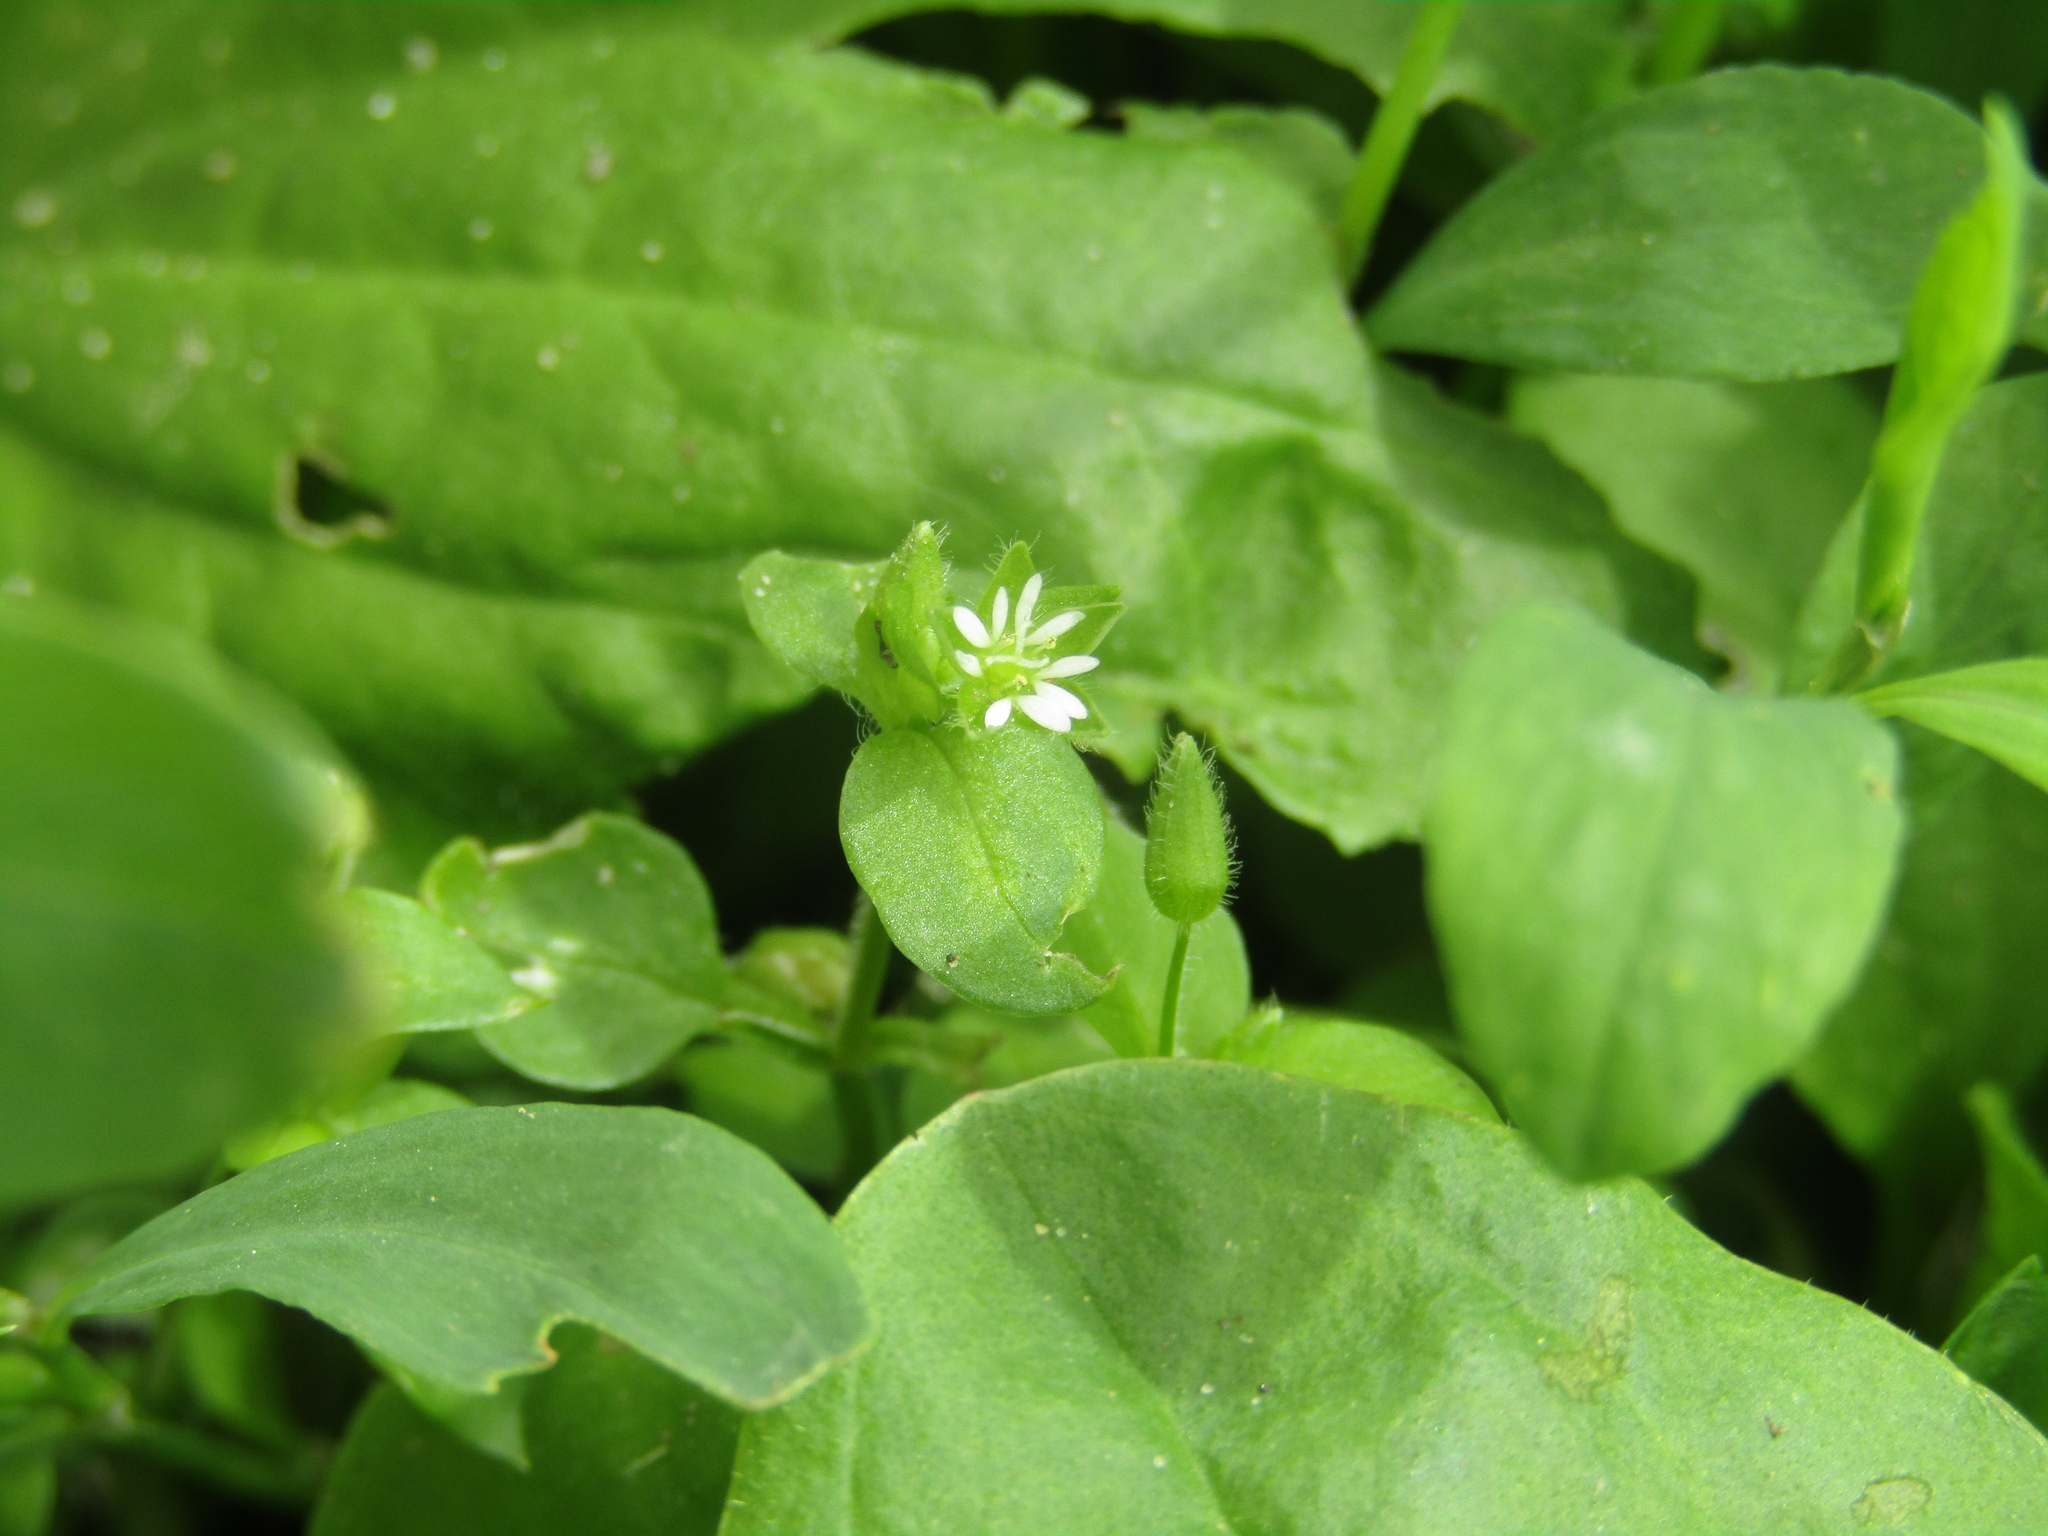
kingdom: Plantae
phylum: Tracheophyta
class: Magnoliopsida
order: Caryophyllales
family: Caryophyllaceae
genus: Stellaria
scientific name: Stellaria media
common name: Common chickweed
